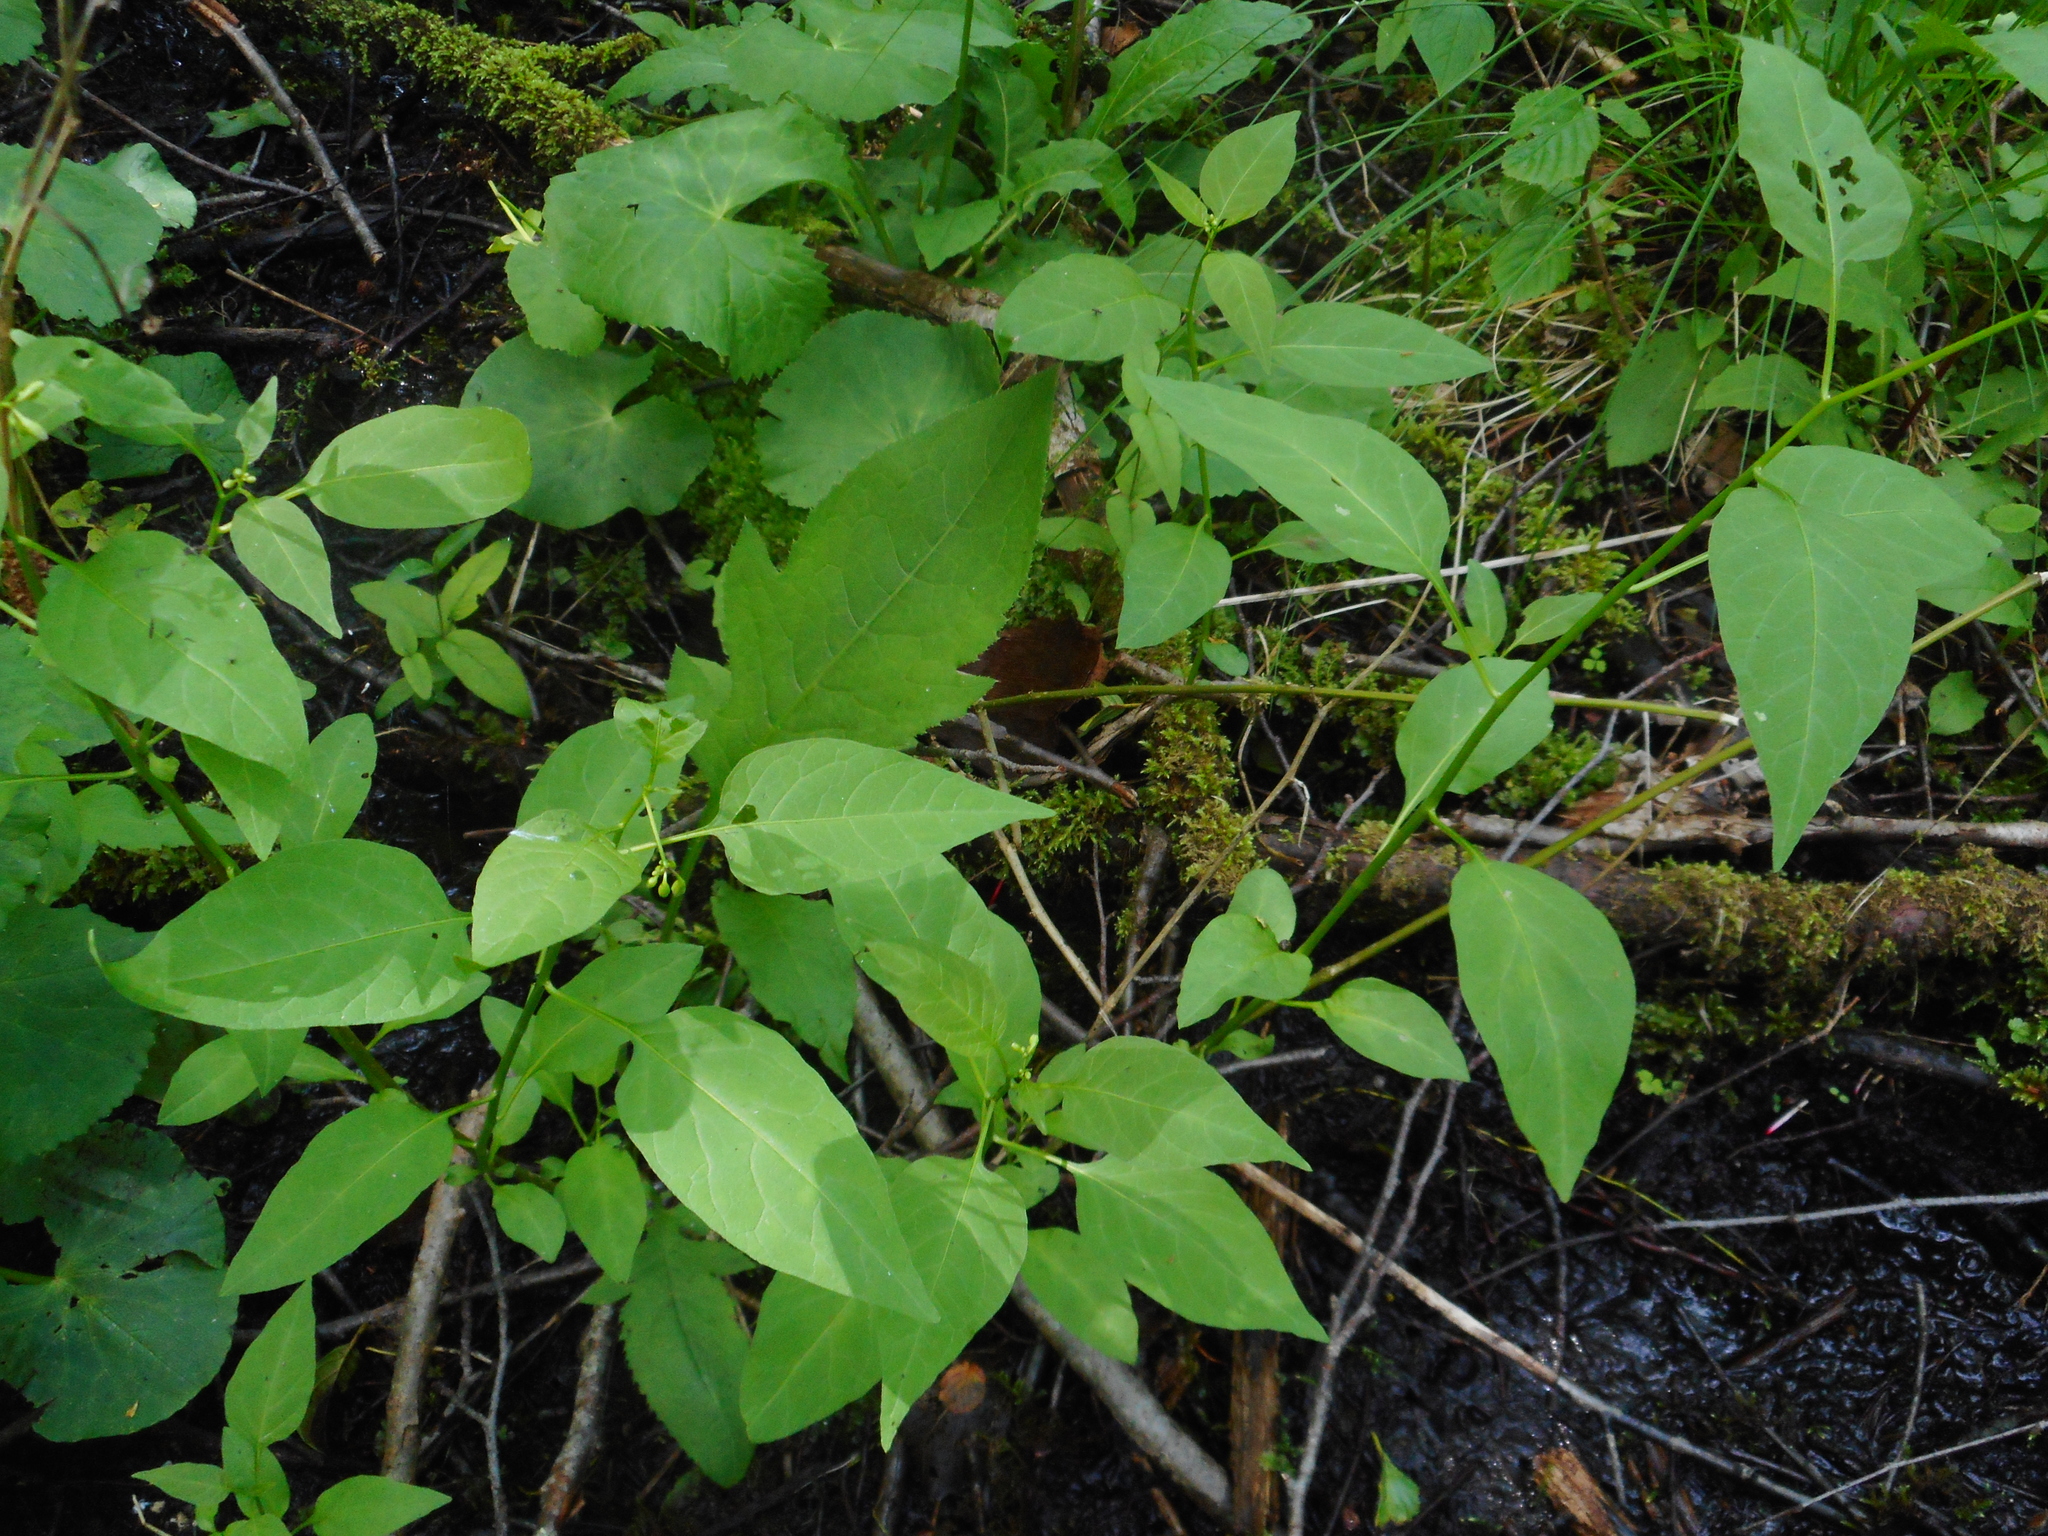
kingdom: Plantae
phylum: Tracheophyta
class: Magnoliopsida
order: Solanales
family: Solanaceae
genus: Solanum
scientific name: Solanum dulcamara
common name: Climbing nightshade
